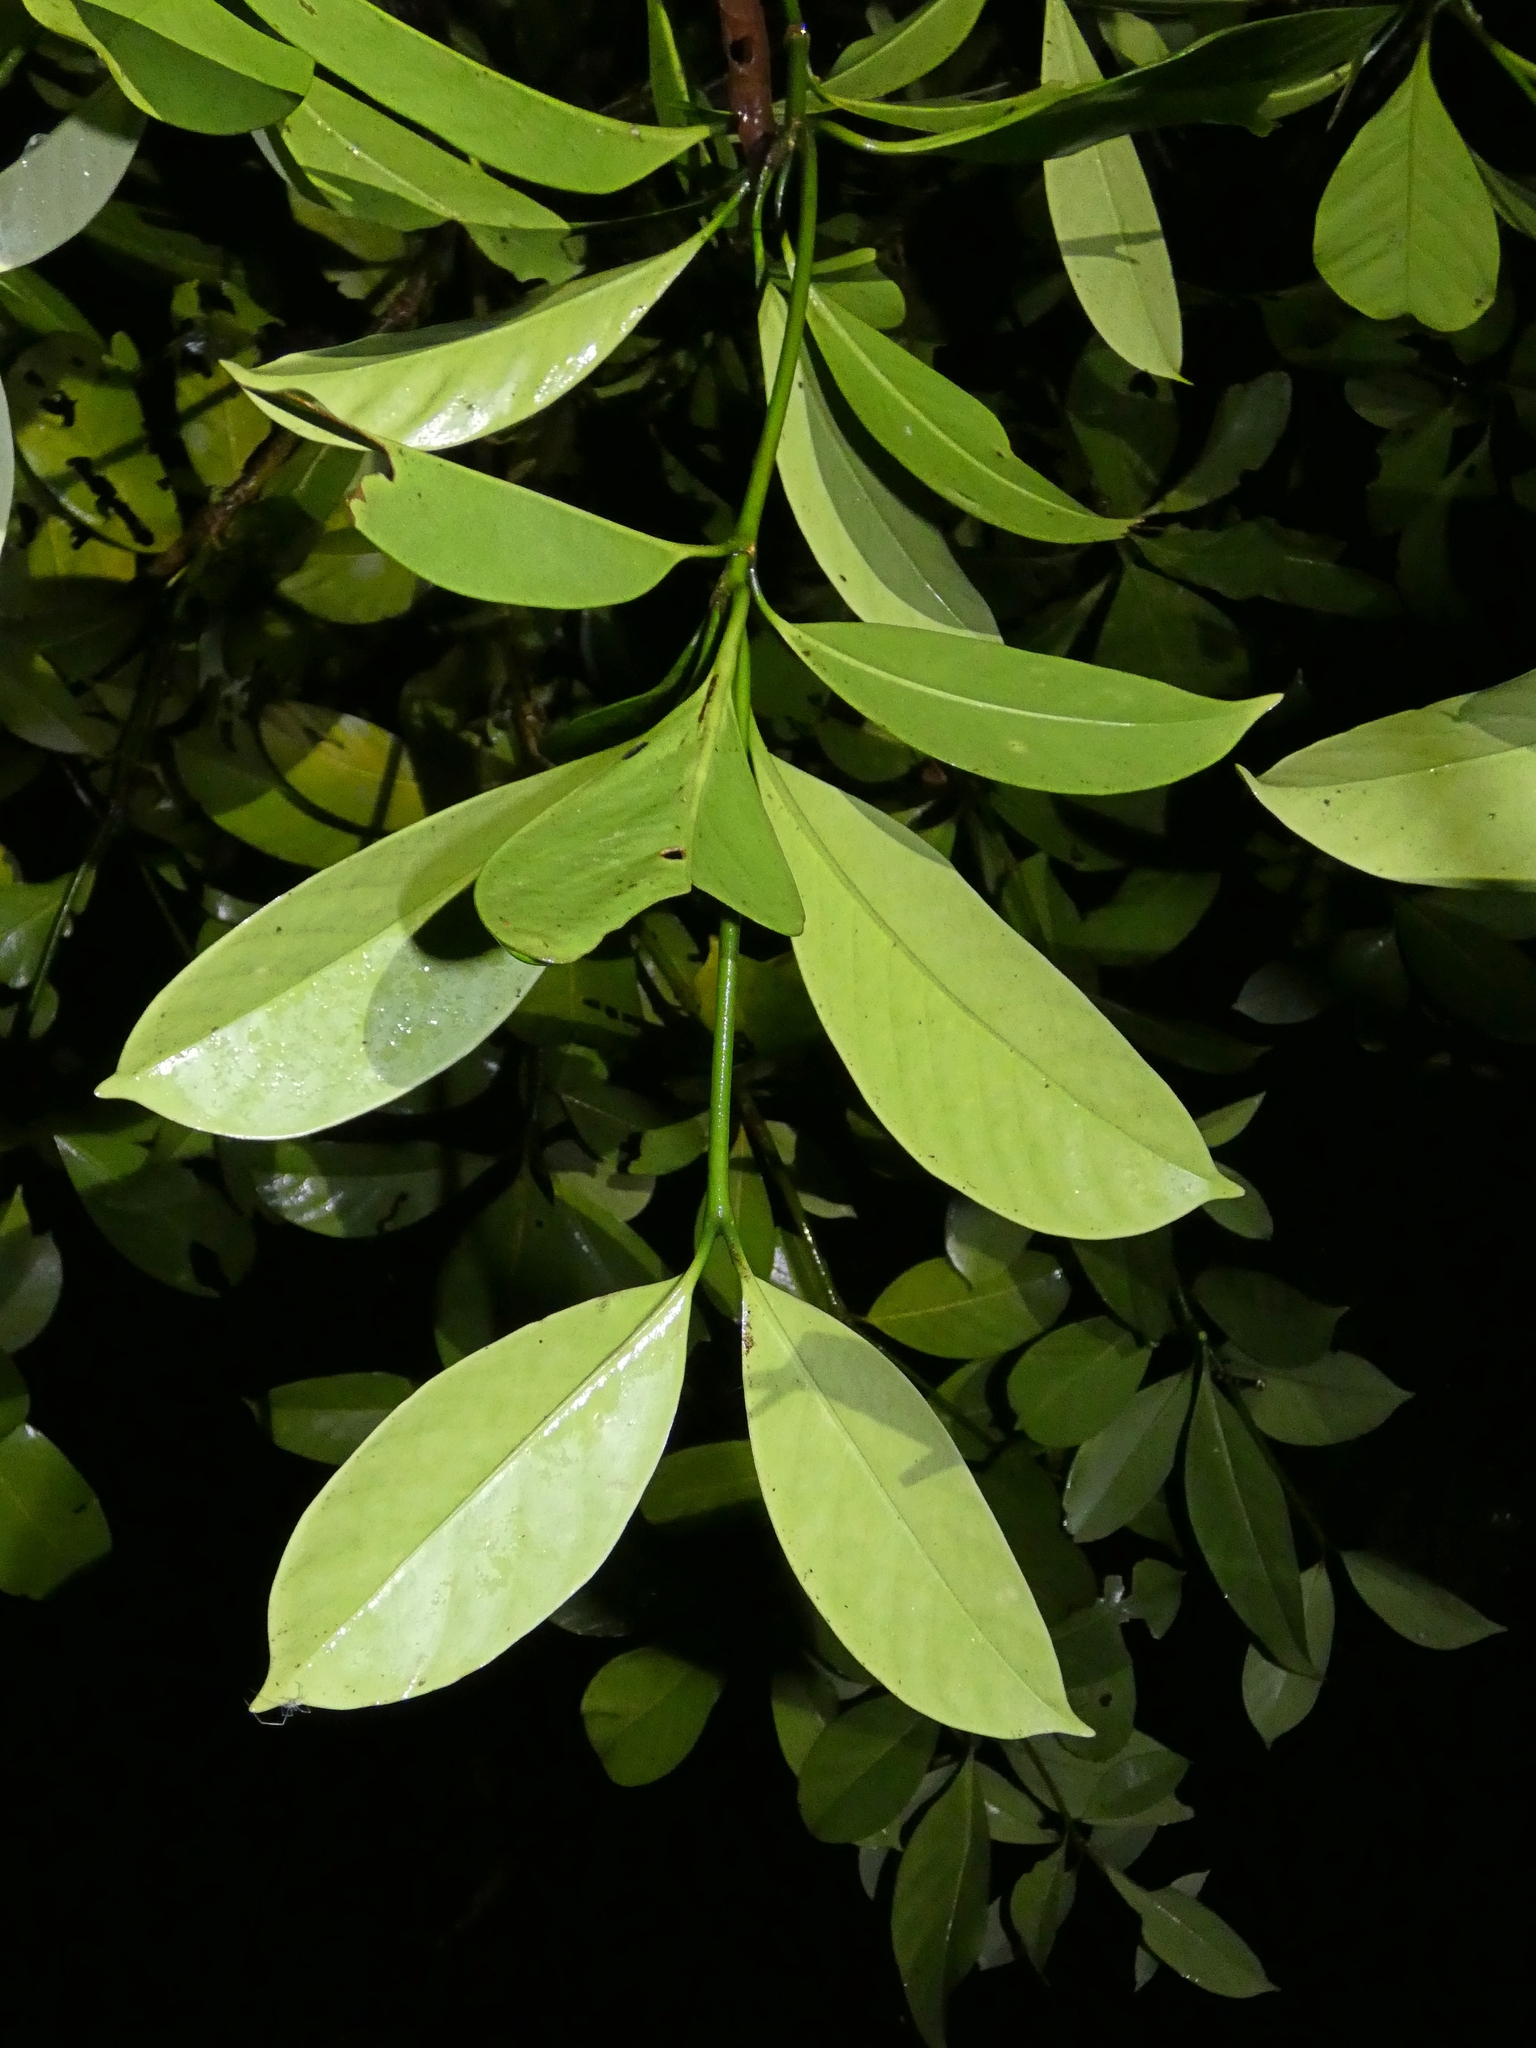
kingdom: Plantae
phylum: Tracheophyta
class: Magnoliopsida
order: Gentianales
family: Gentianaceae
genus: Fagraea
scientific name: Fagraea gracilipes
